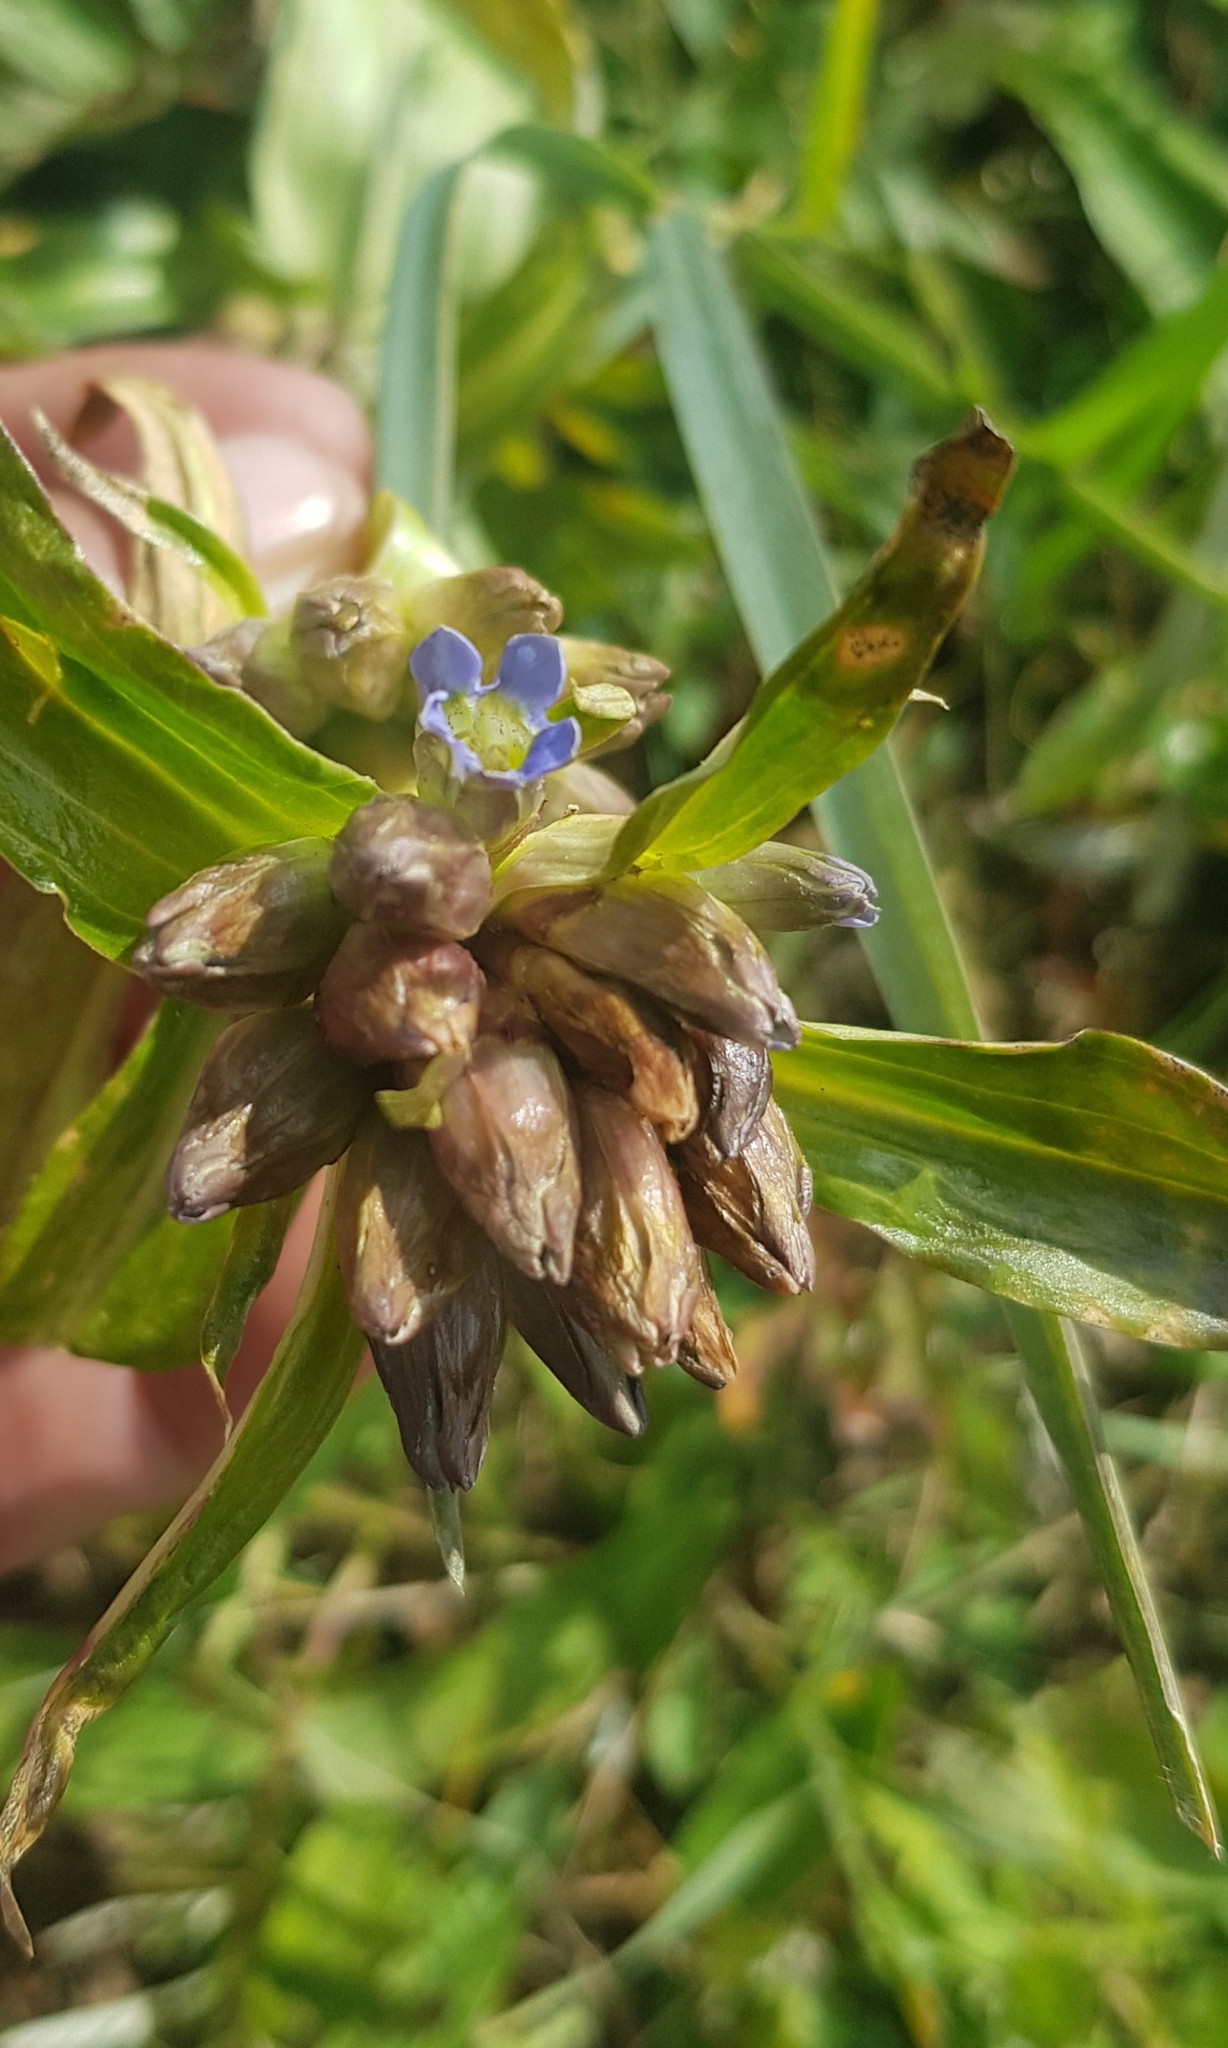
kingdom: Plantae
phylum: Tracheophyta
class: Magnoliopsida
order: Gentianales
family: Gentianaceae
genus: Gentiana
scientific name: Gentiana macrophylla
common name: Large-leaf gentian
